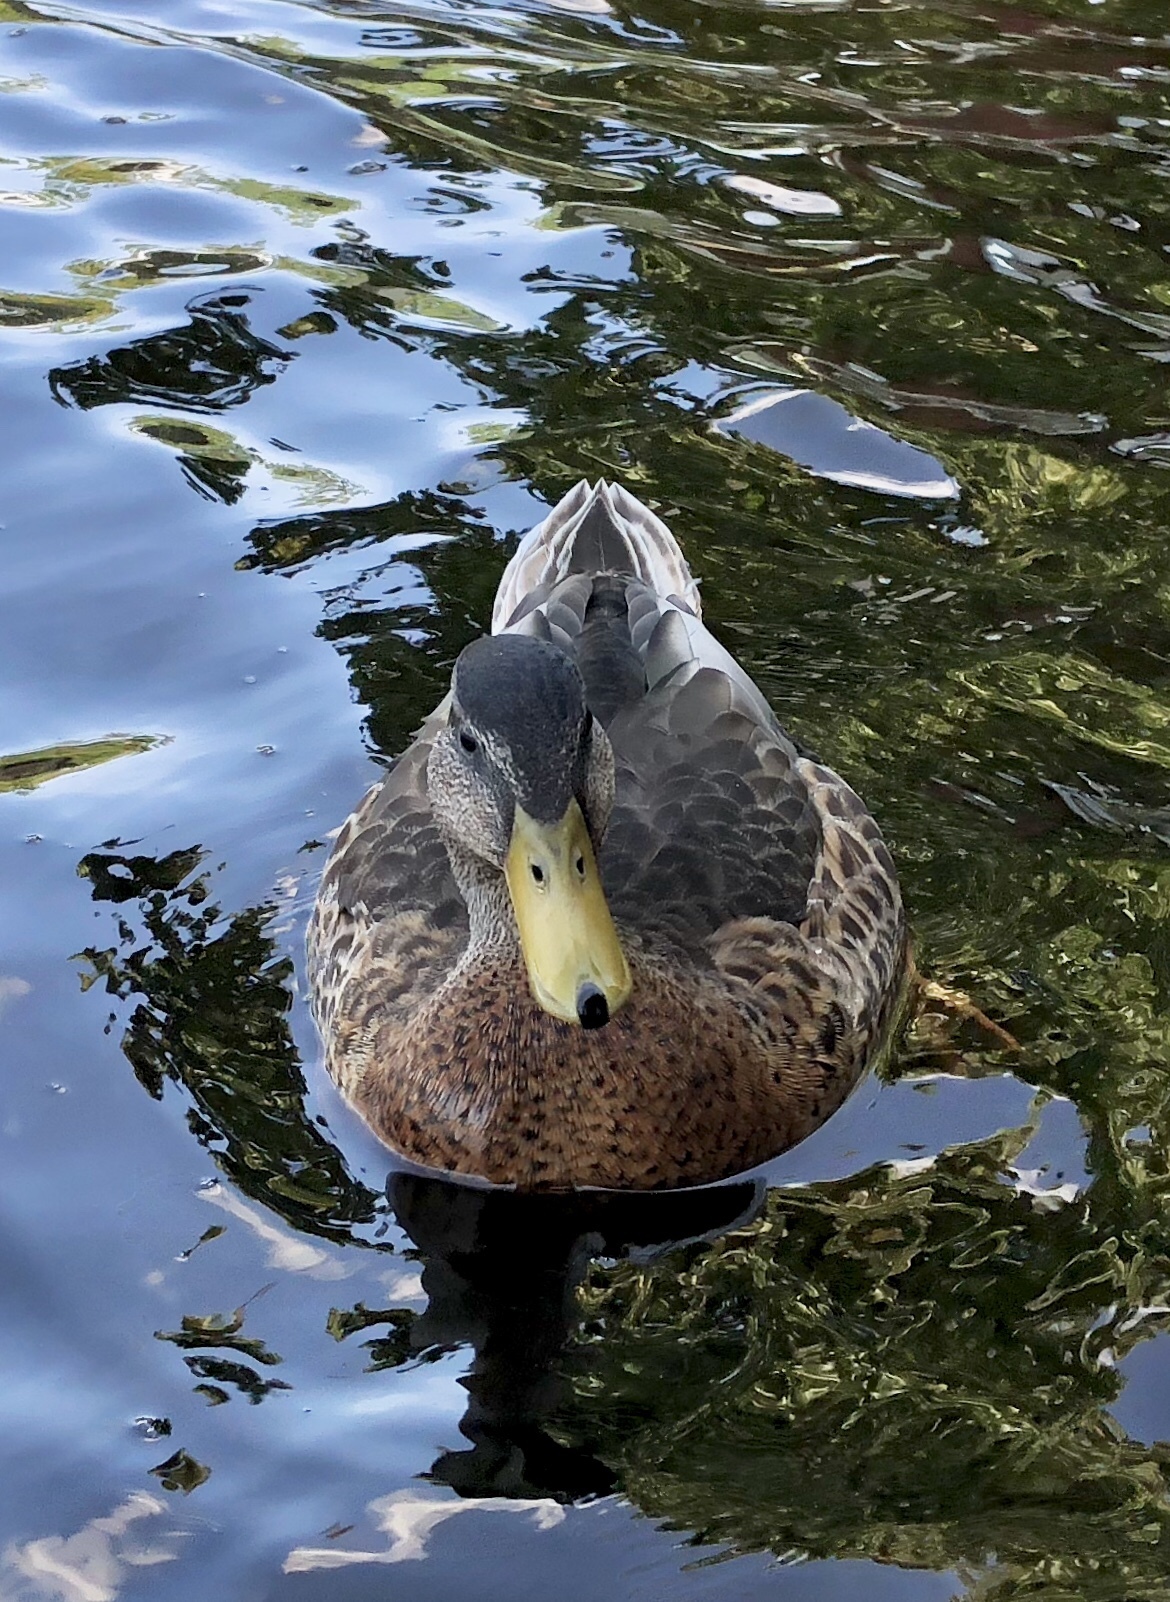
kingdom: Animalia
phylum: Chordata
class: Aves
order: Anseriformes
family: Anatidae
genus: Anas
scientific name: Anas platyrhynchos
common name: Mallard
